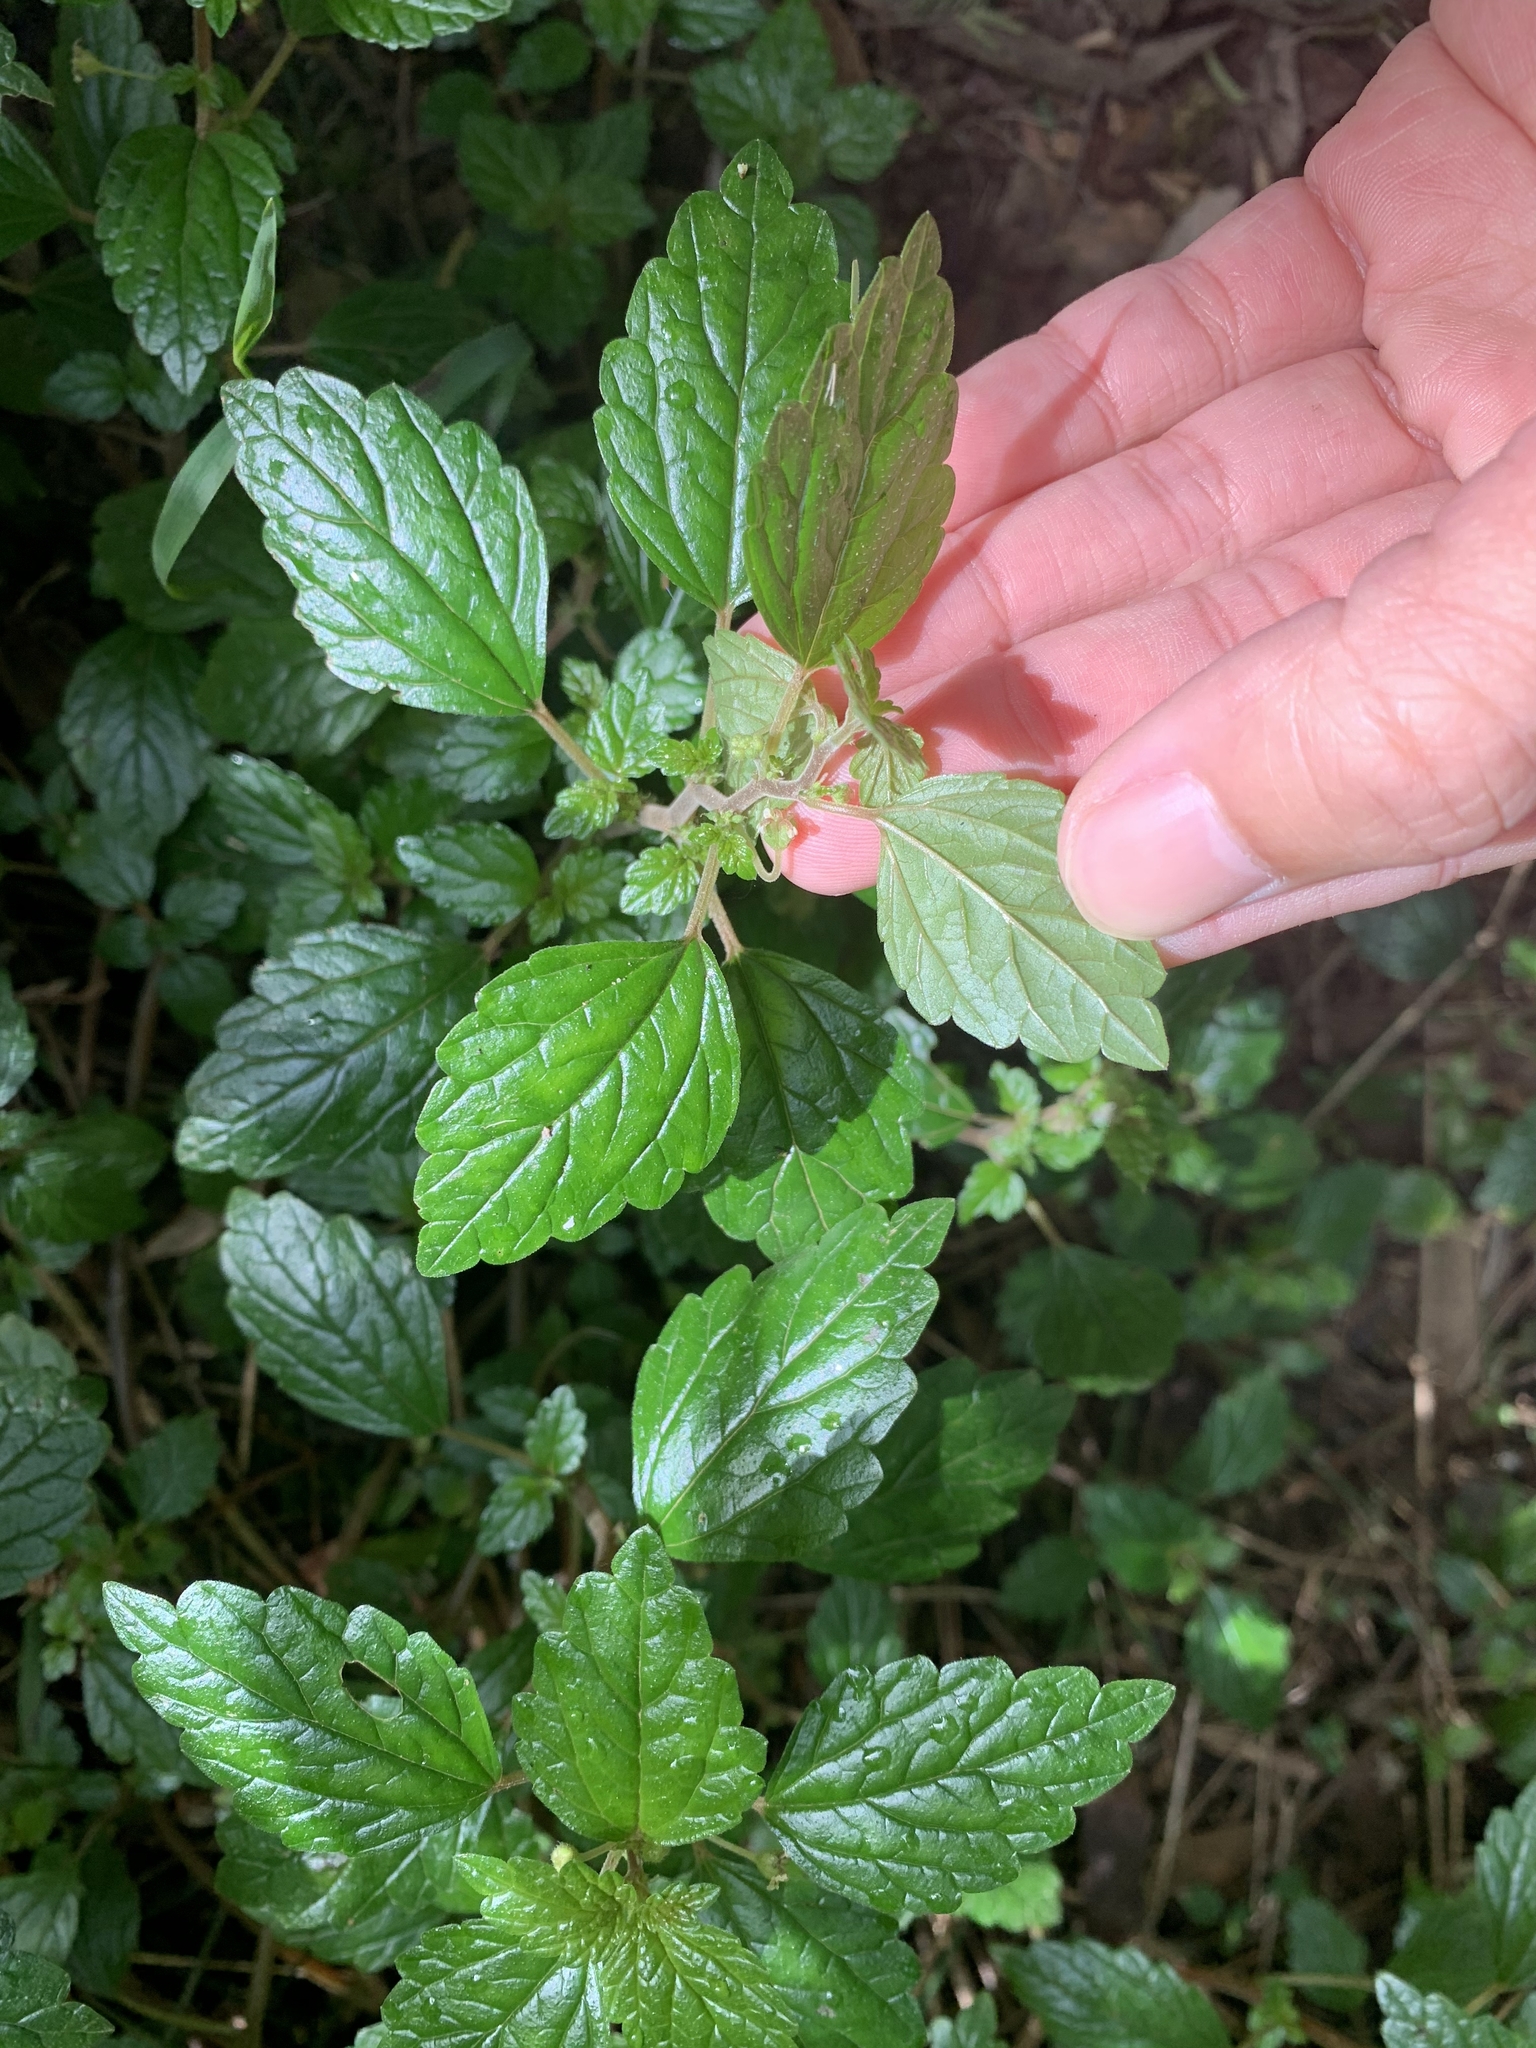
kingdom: Plantae
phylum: Tracheophyta
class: Magnoliopsida
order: Rosales
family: Urticaceae
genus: Australina
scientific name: Australina pusilla
